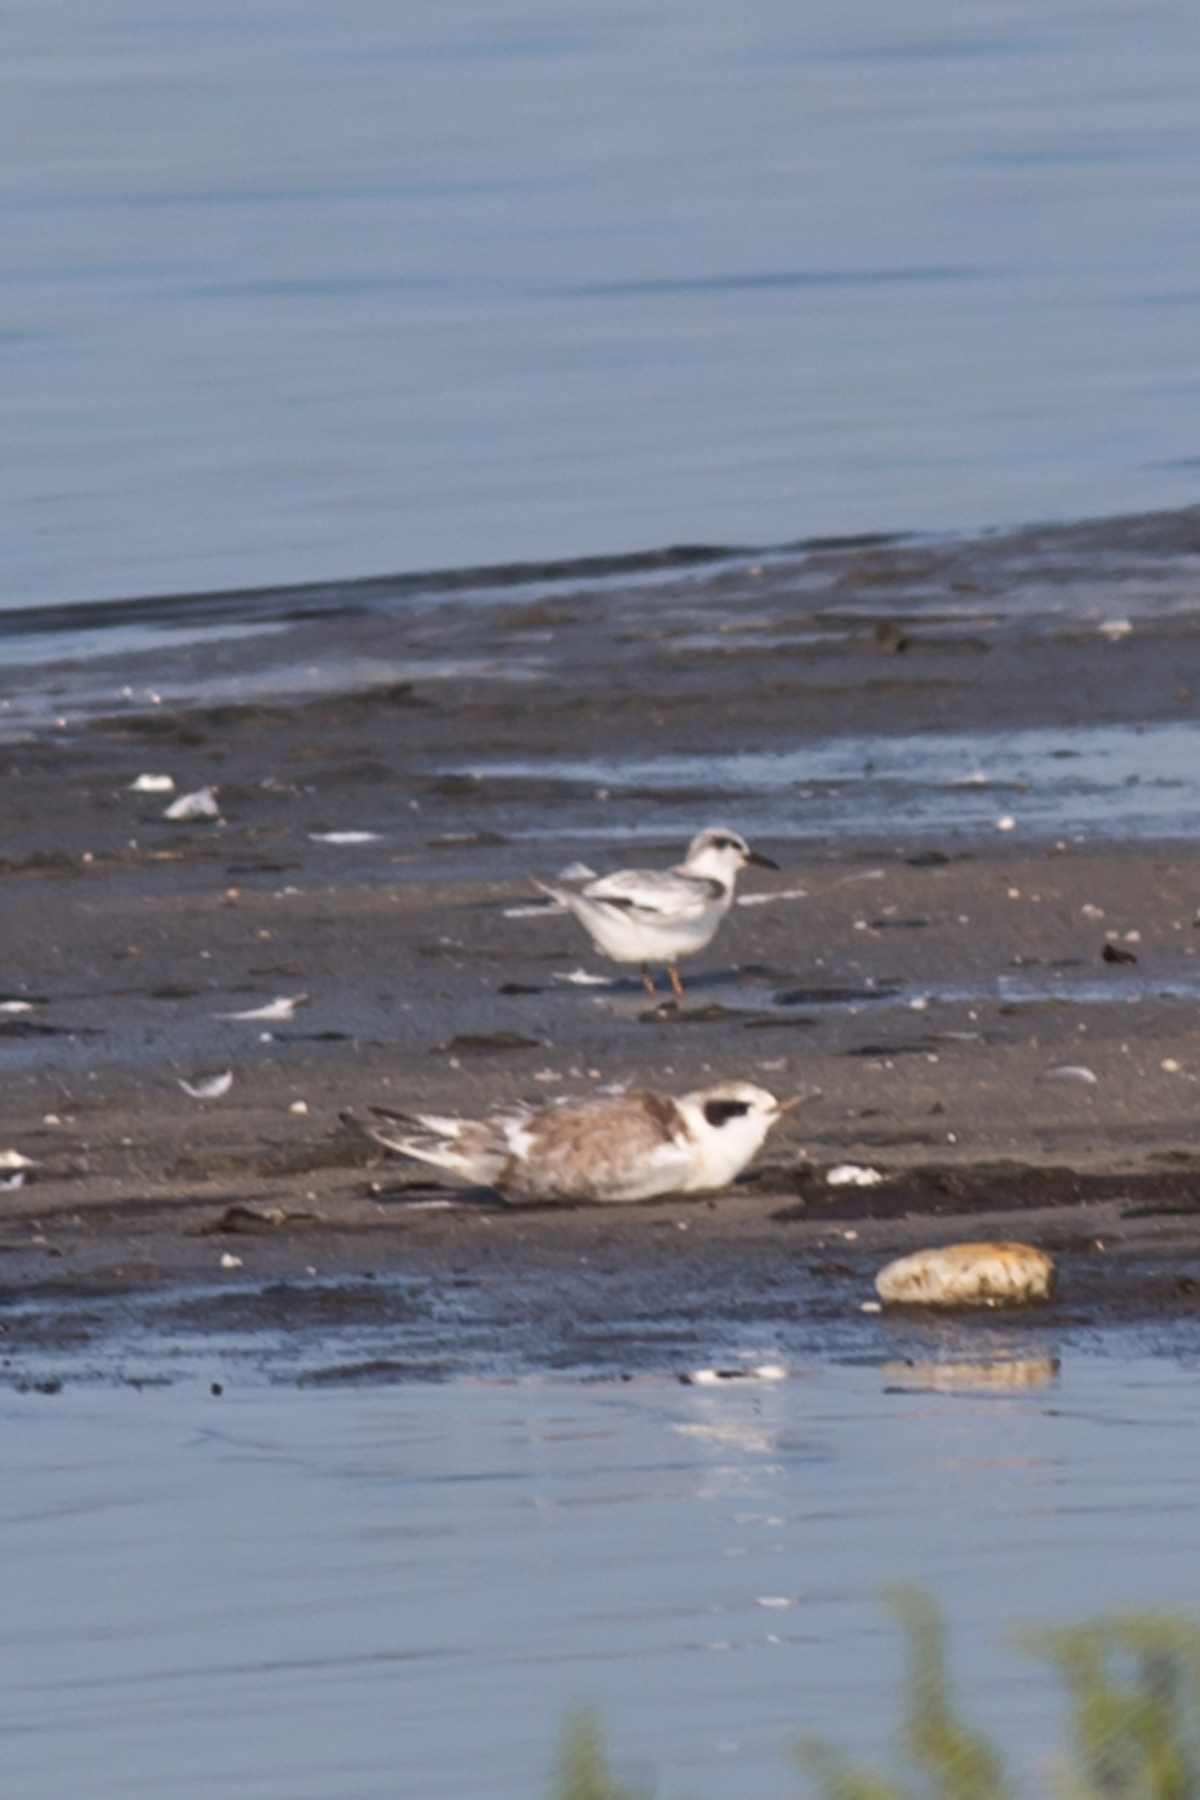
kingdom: Animalia
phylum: Chordata
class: Aves
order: Charadriiformes
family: Laridae
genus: Sternula
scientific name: Sternula antillarum
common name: Least tern
